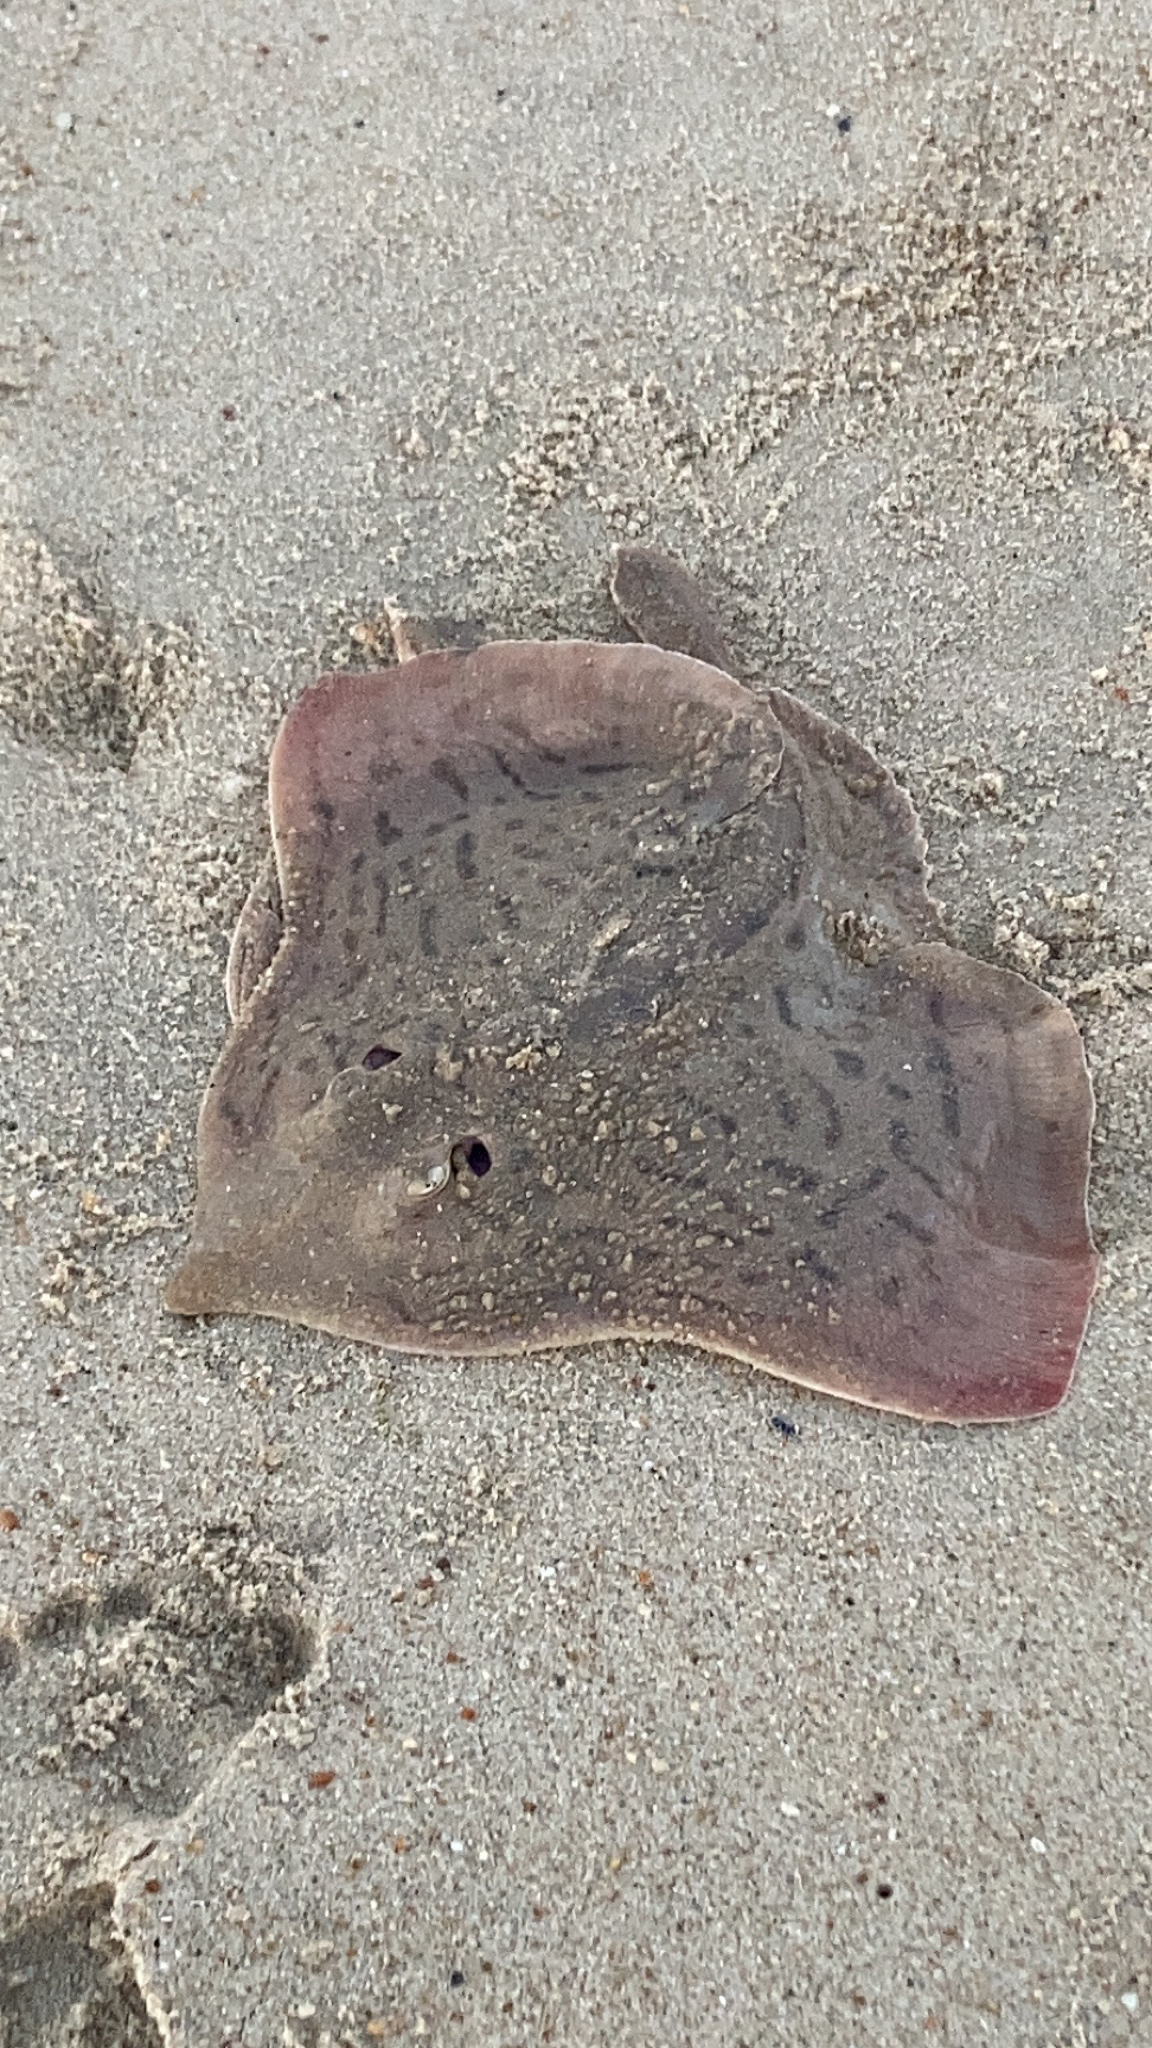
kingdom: Animalia
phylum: Chordata
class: Elasmobranchii
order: Rajiformes
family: Rajidae
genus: Raja
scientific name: Raja eglanteria
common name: Clearnose skate
